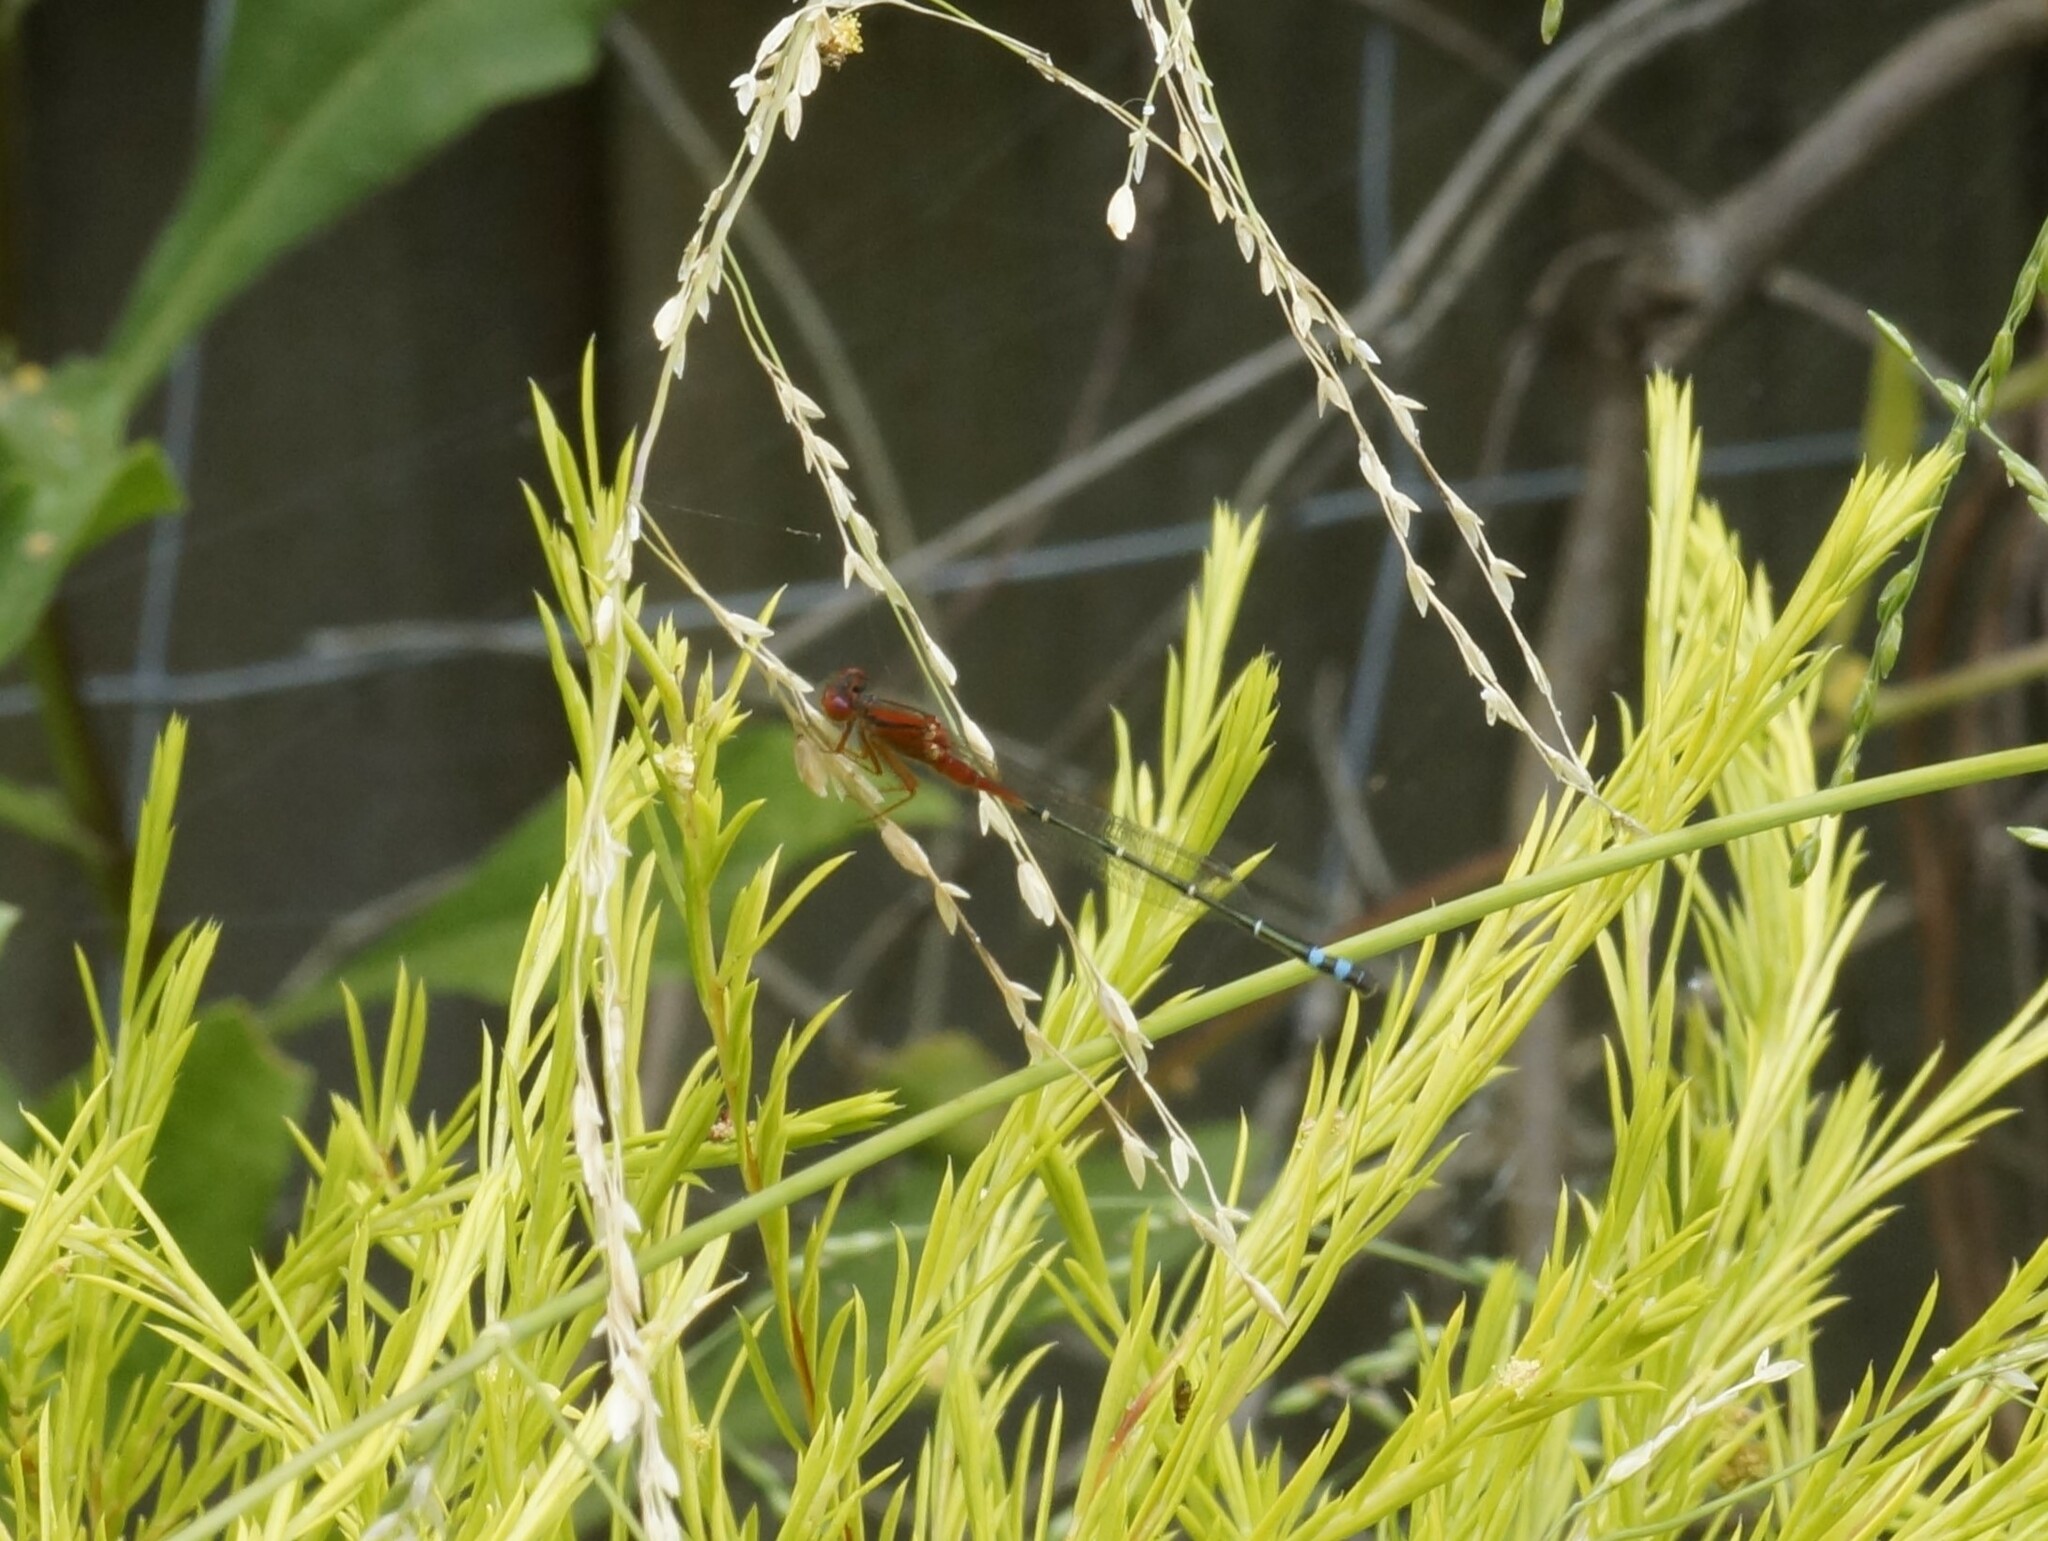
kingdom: Animalia
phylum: Arthropoda
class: Insecta
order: Odonata
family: Coenagrionidae
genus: Xanthagrion
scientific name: Xanthagrion erythroneurum
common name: Red and blue damsel
